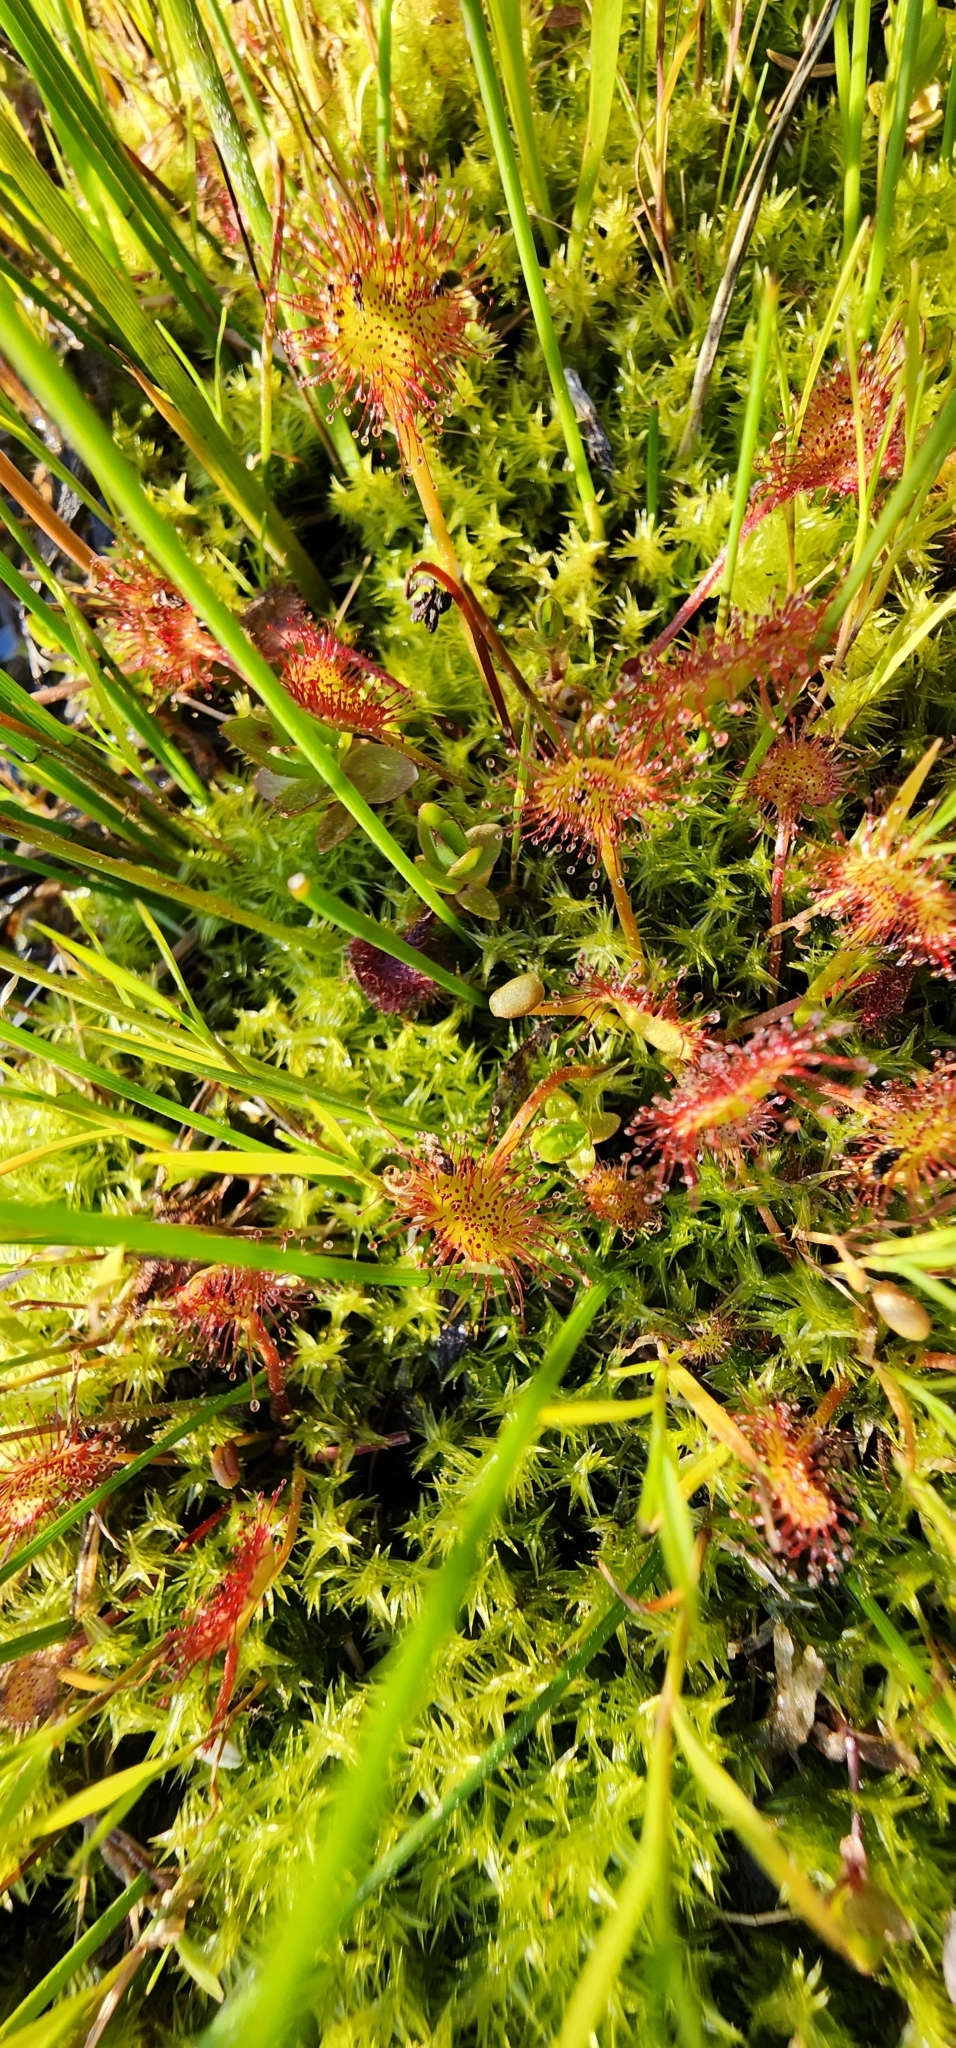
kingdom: Plantae
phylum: Tracheophyta
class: Magnoliopsida
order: Caryophyllales
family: Droseraceae
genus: Drosera
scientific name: Drosera rotundifolia
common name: Round-leaved sundew
